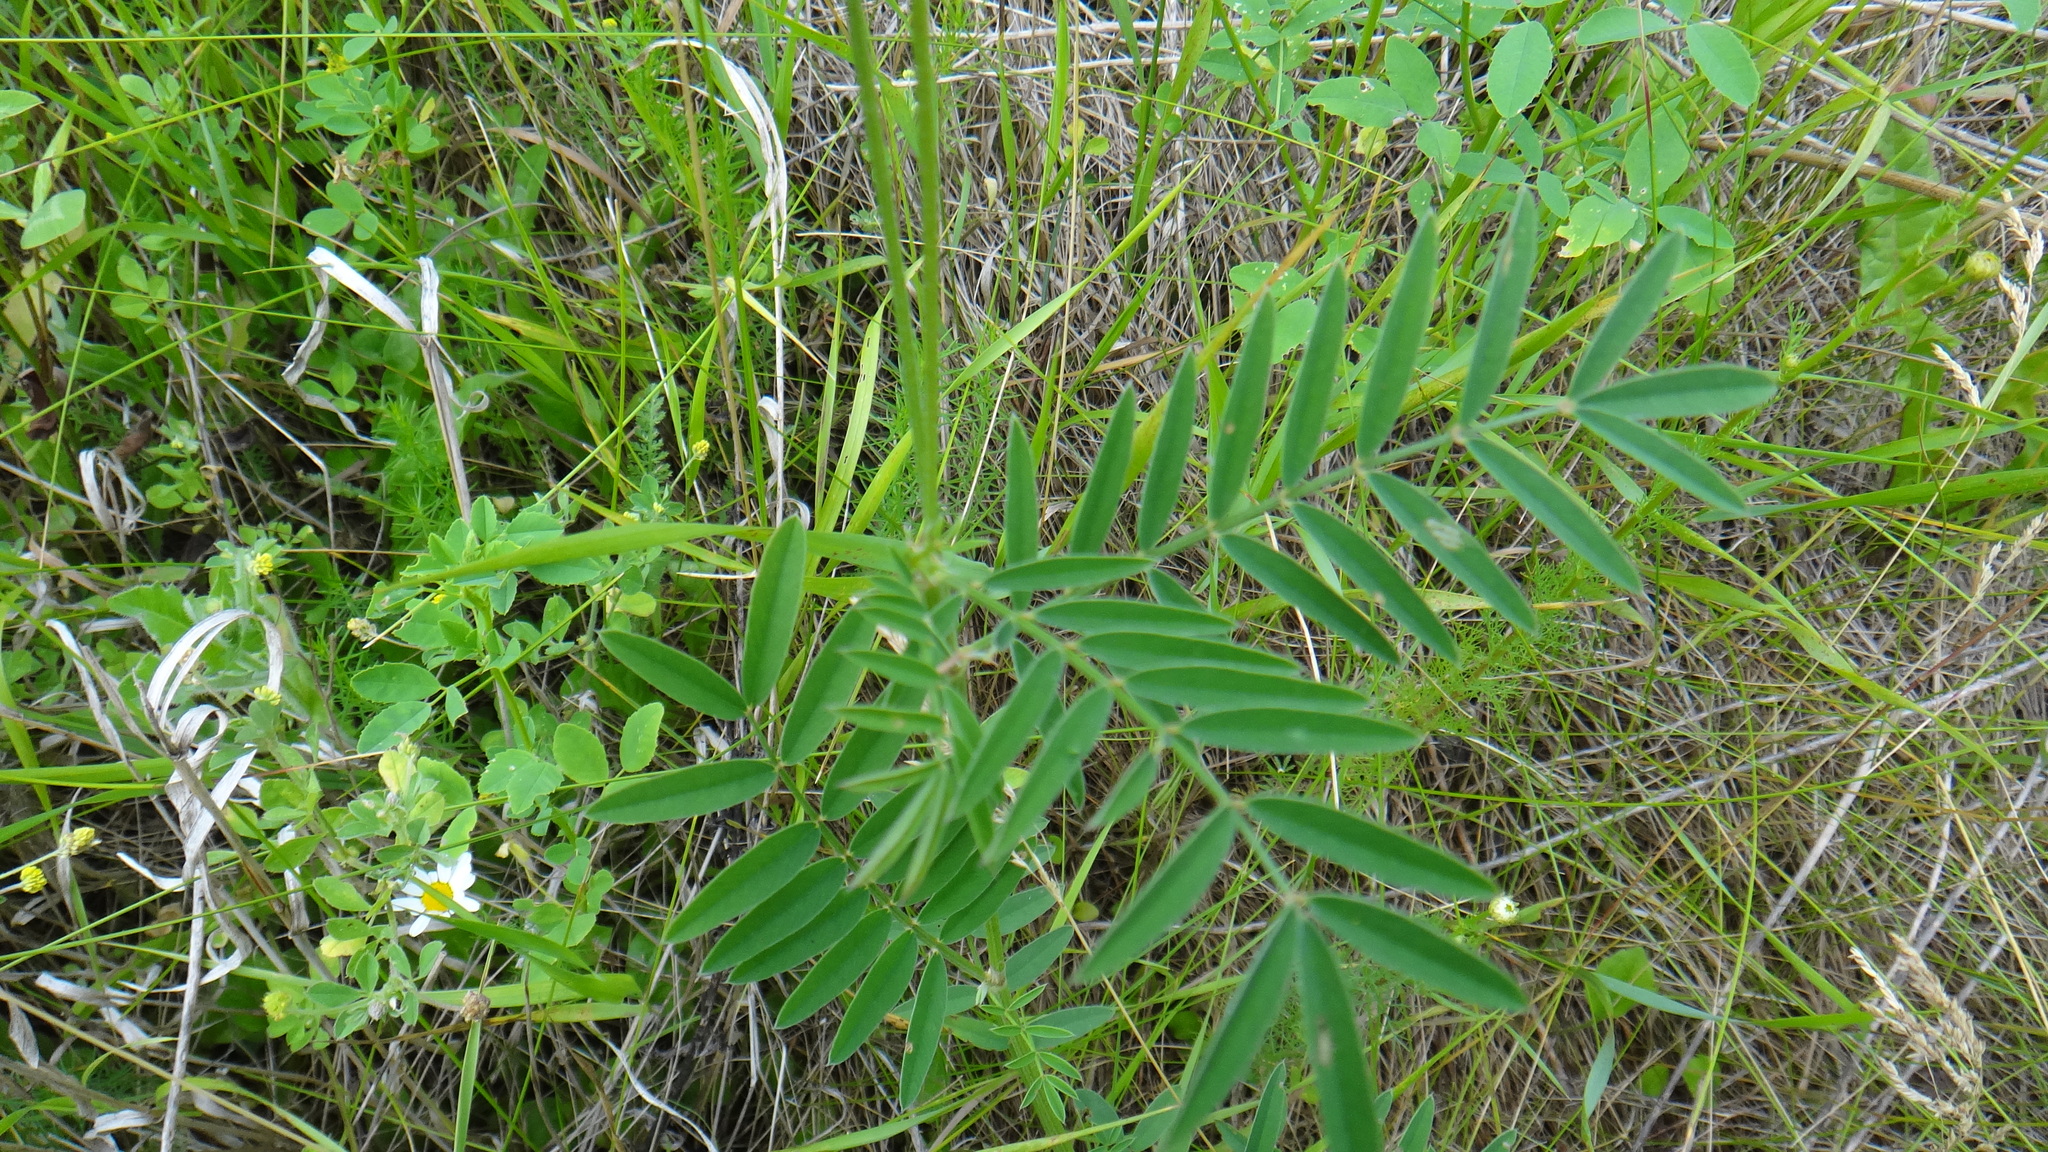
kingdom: Plantae
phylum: Tracheophyta
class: Magnoliopsida
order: Fabales
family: Fabaceae
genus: Onobrychis
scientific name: Onobrychis viciifolia
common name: Sainfoin
